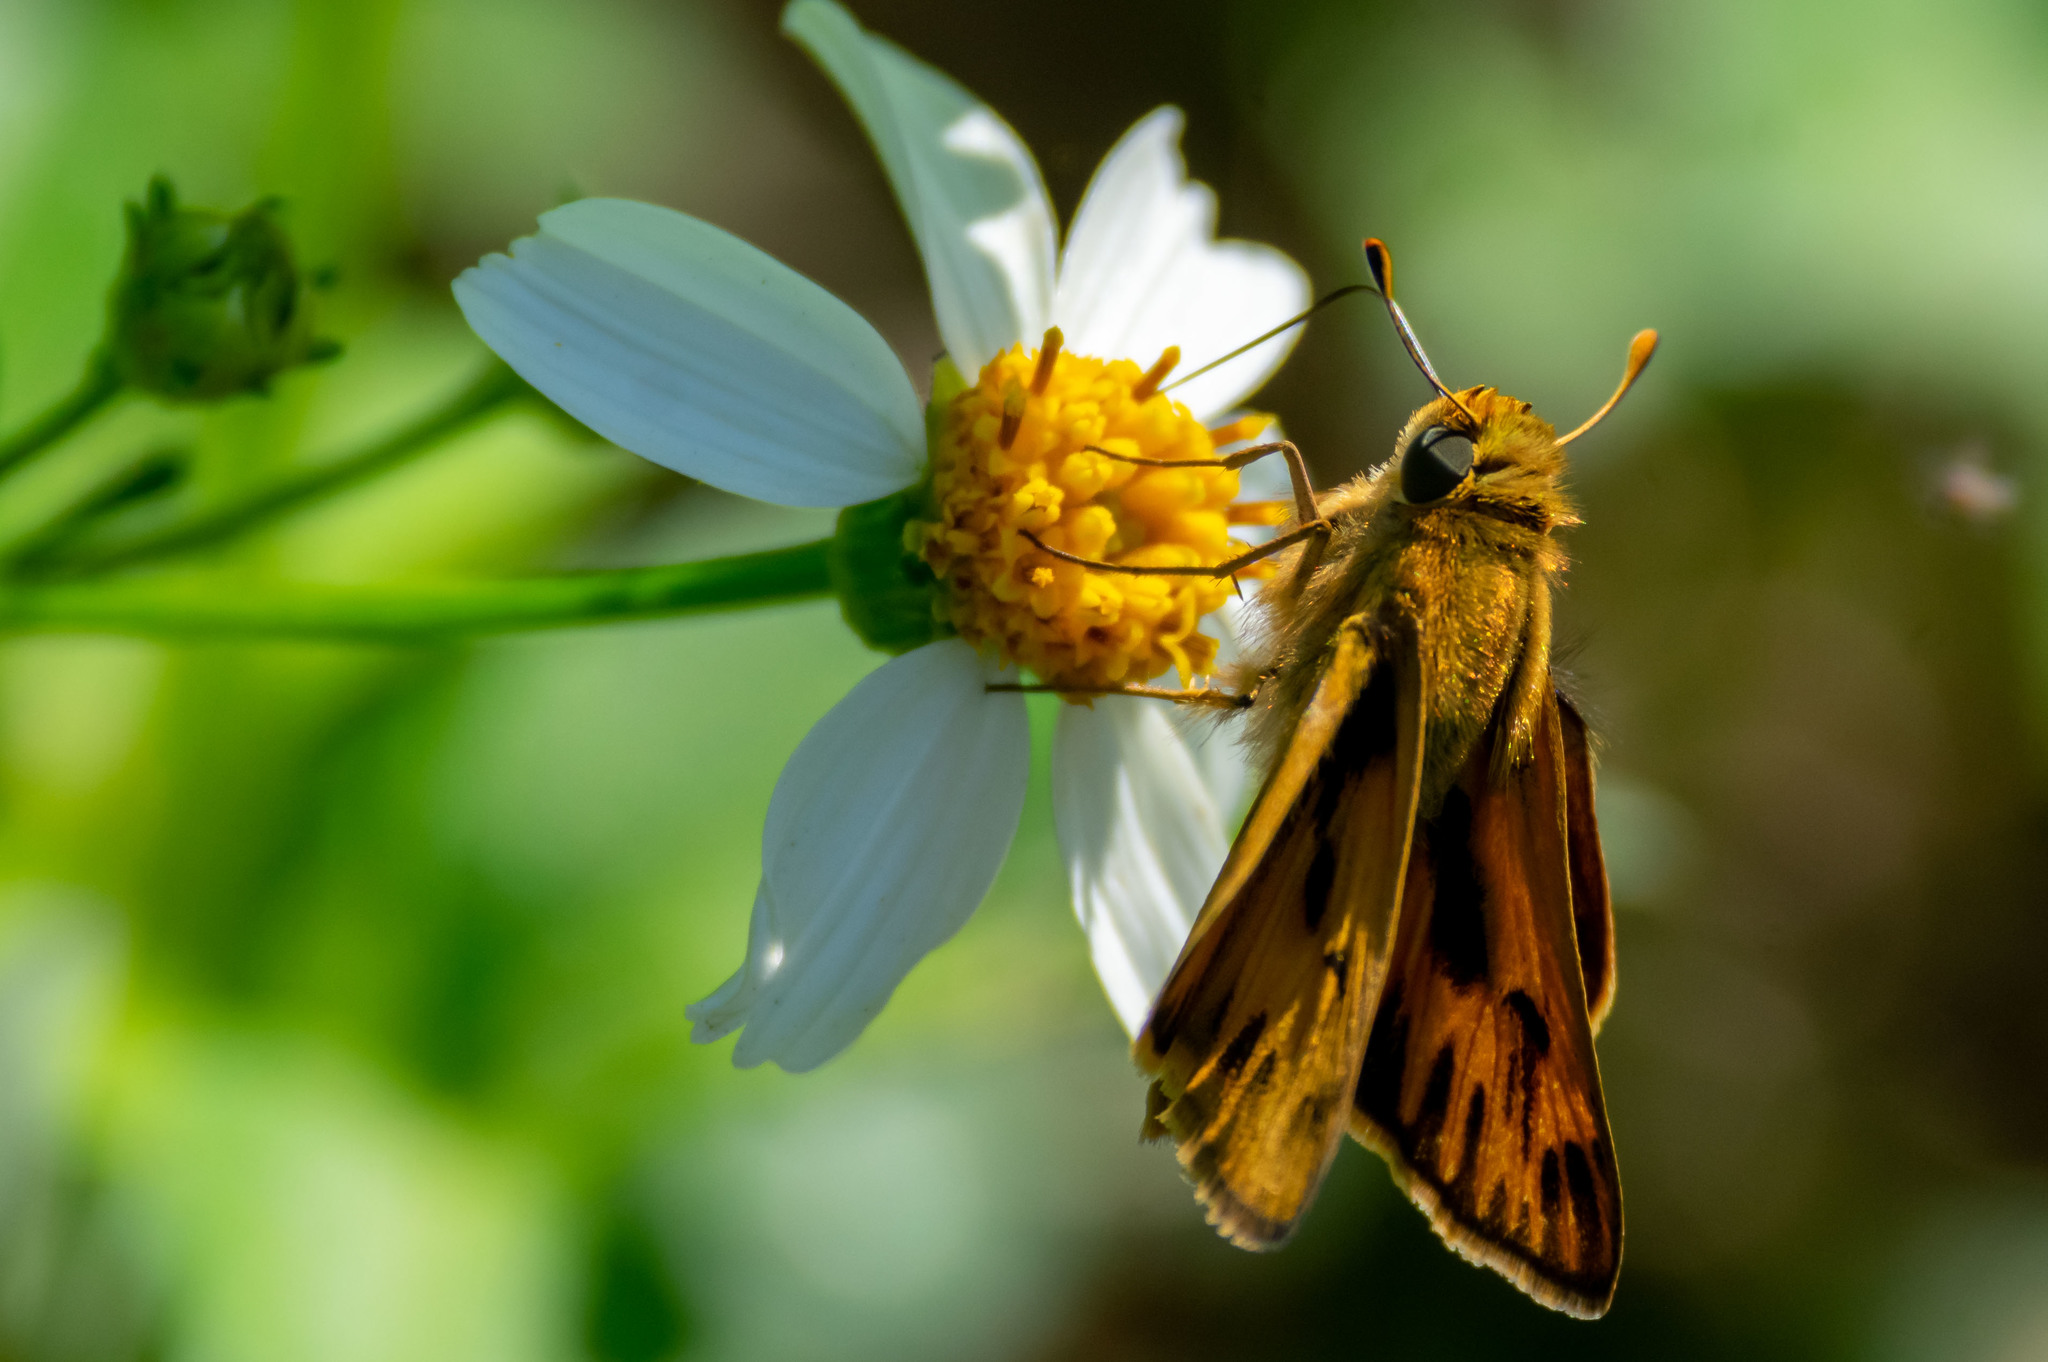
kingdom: Animalia
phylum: Arthropoda
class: Insecta
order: Lepidoptera
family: Hesperiidae
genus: Hylephila
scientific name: Hylephila phyleus
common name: Fiery skipper
